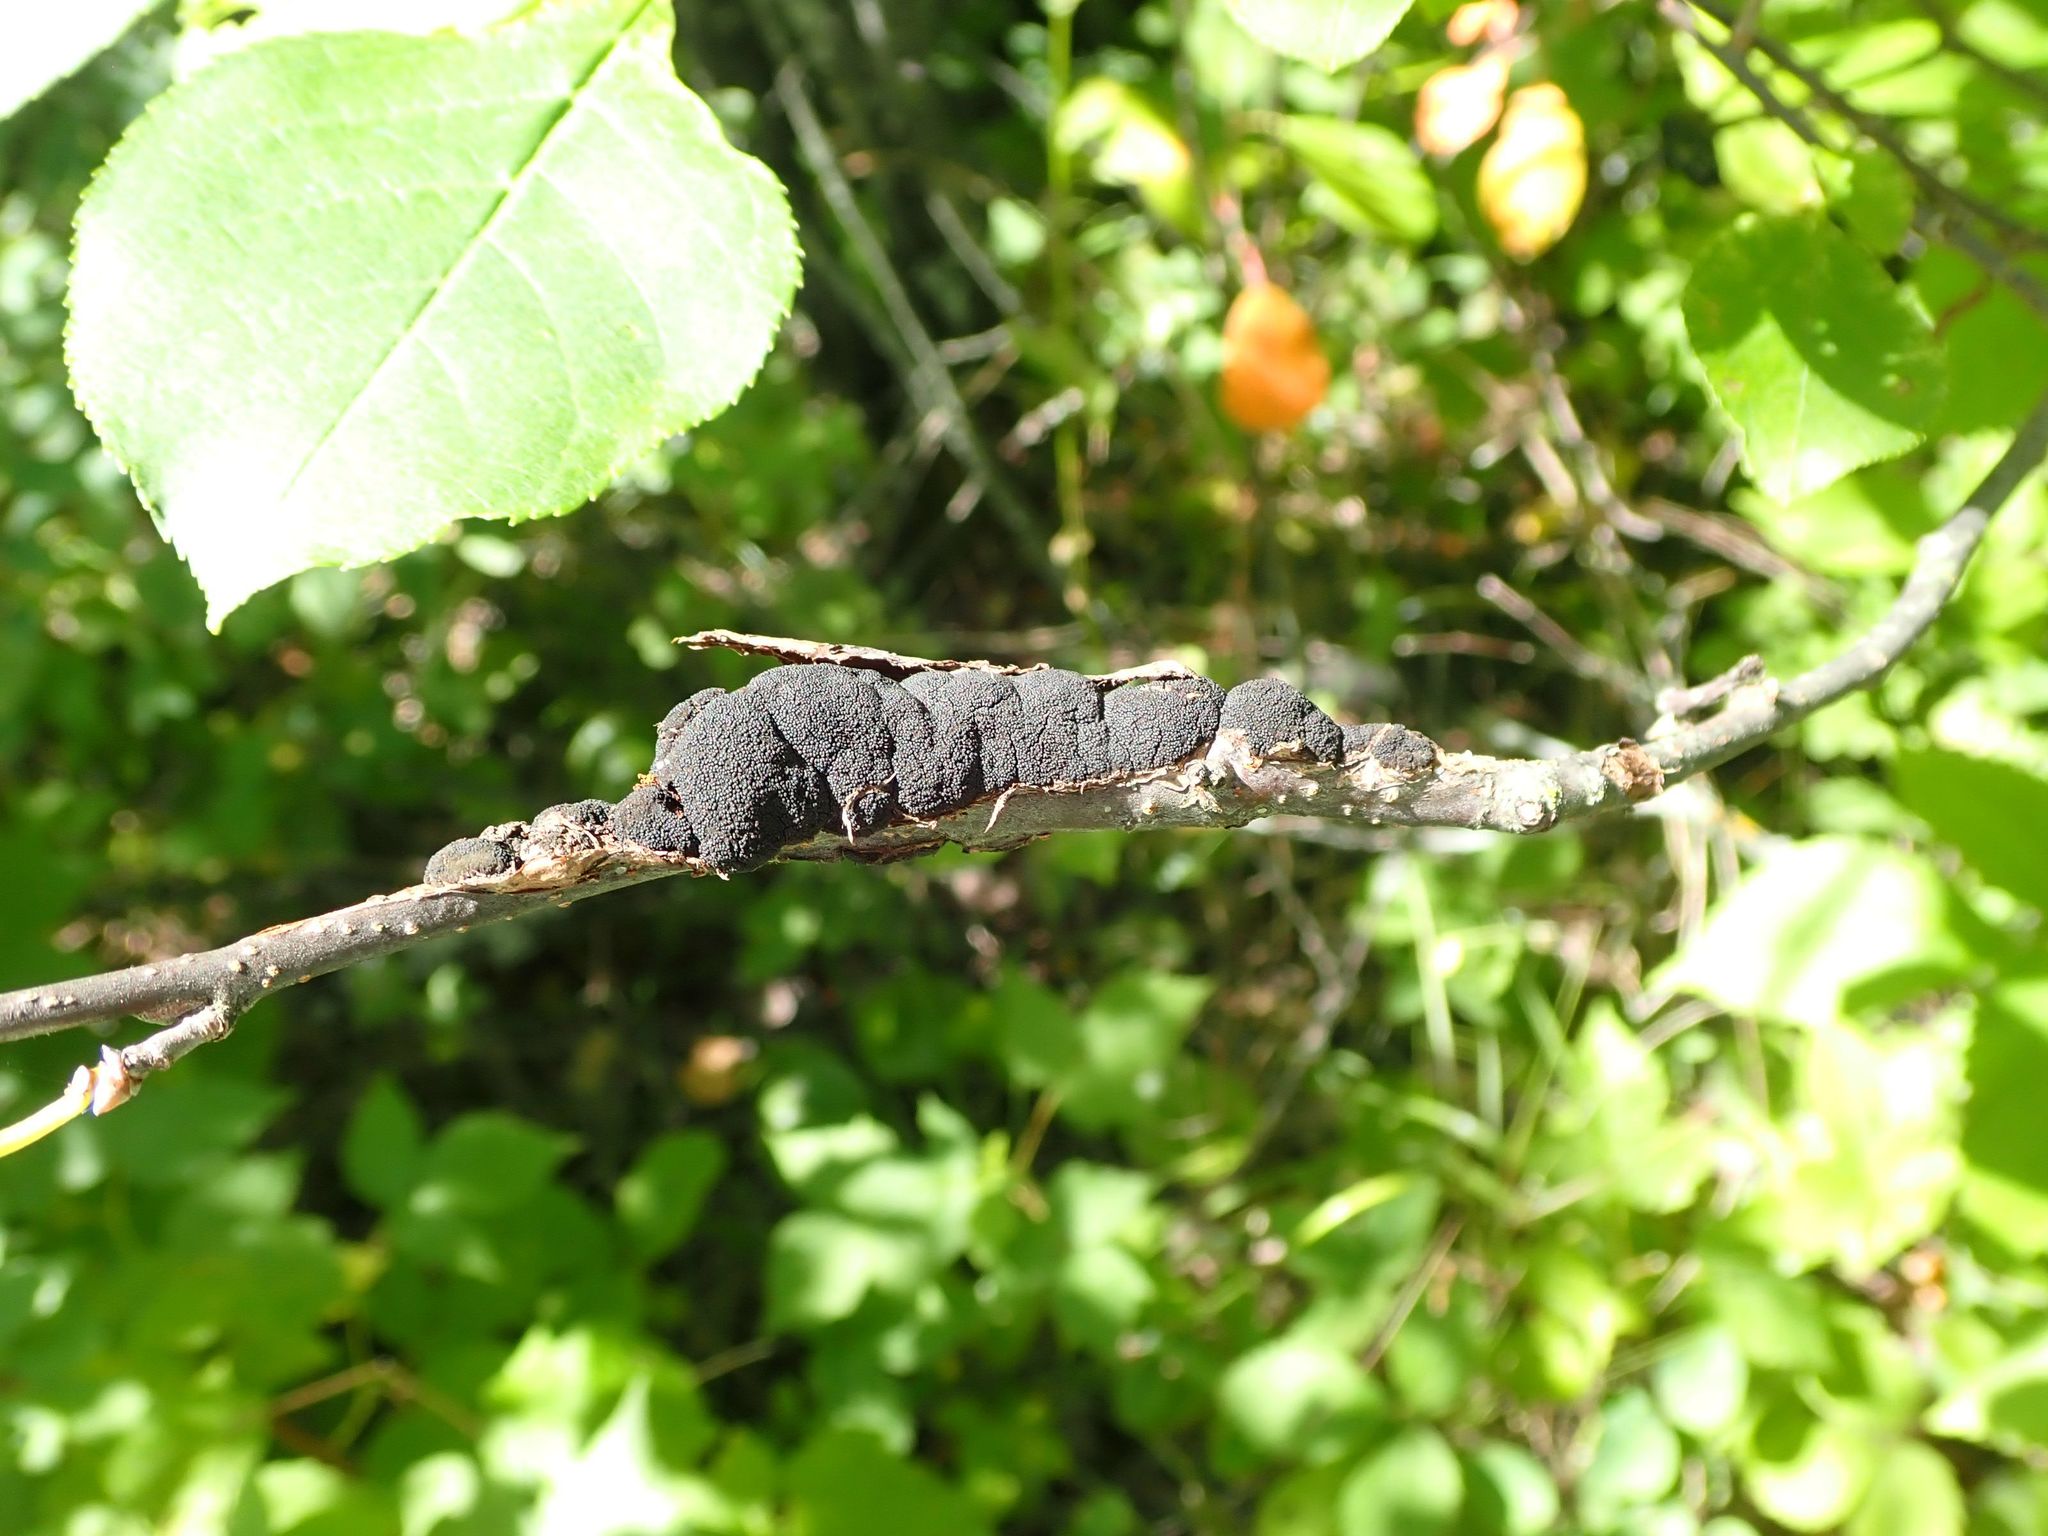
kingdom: Fungi
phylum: Ascomycota
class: Dothideomycetes
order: Venturiales
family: Venturiaceae
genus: Apiosporina
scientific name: Apiosporina morbosa
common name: Black knot
